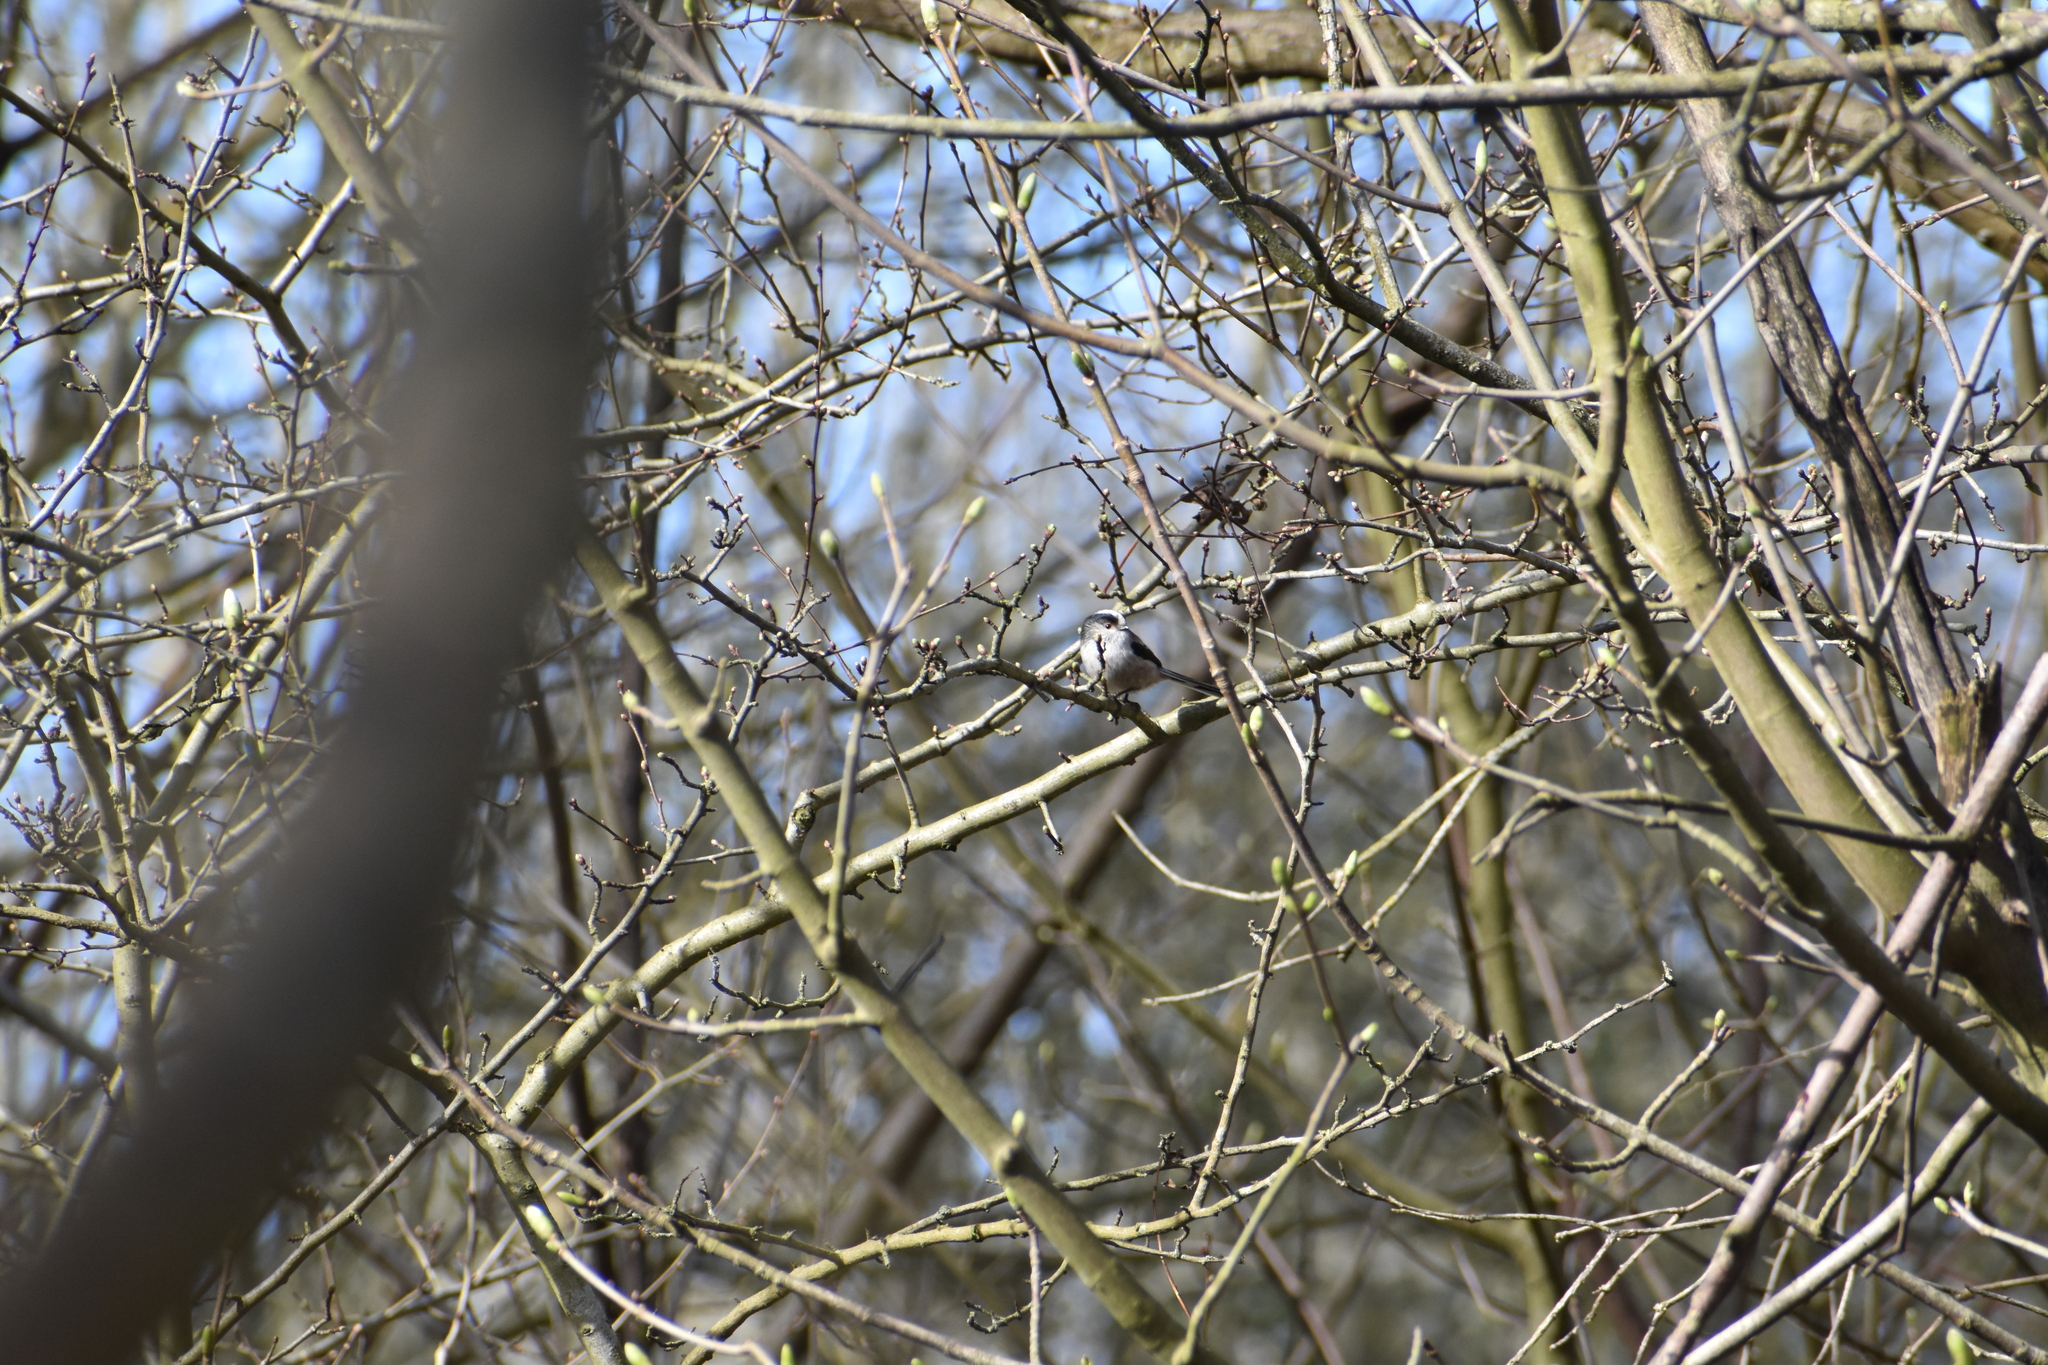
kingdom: Animalia
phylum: Chordata
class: Aves
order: Passeriformes
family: Aegithalidae
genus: Aegithalos
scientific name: Aegithalos caudatus
